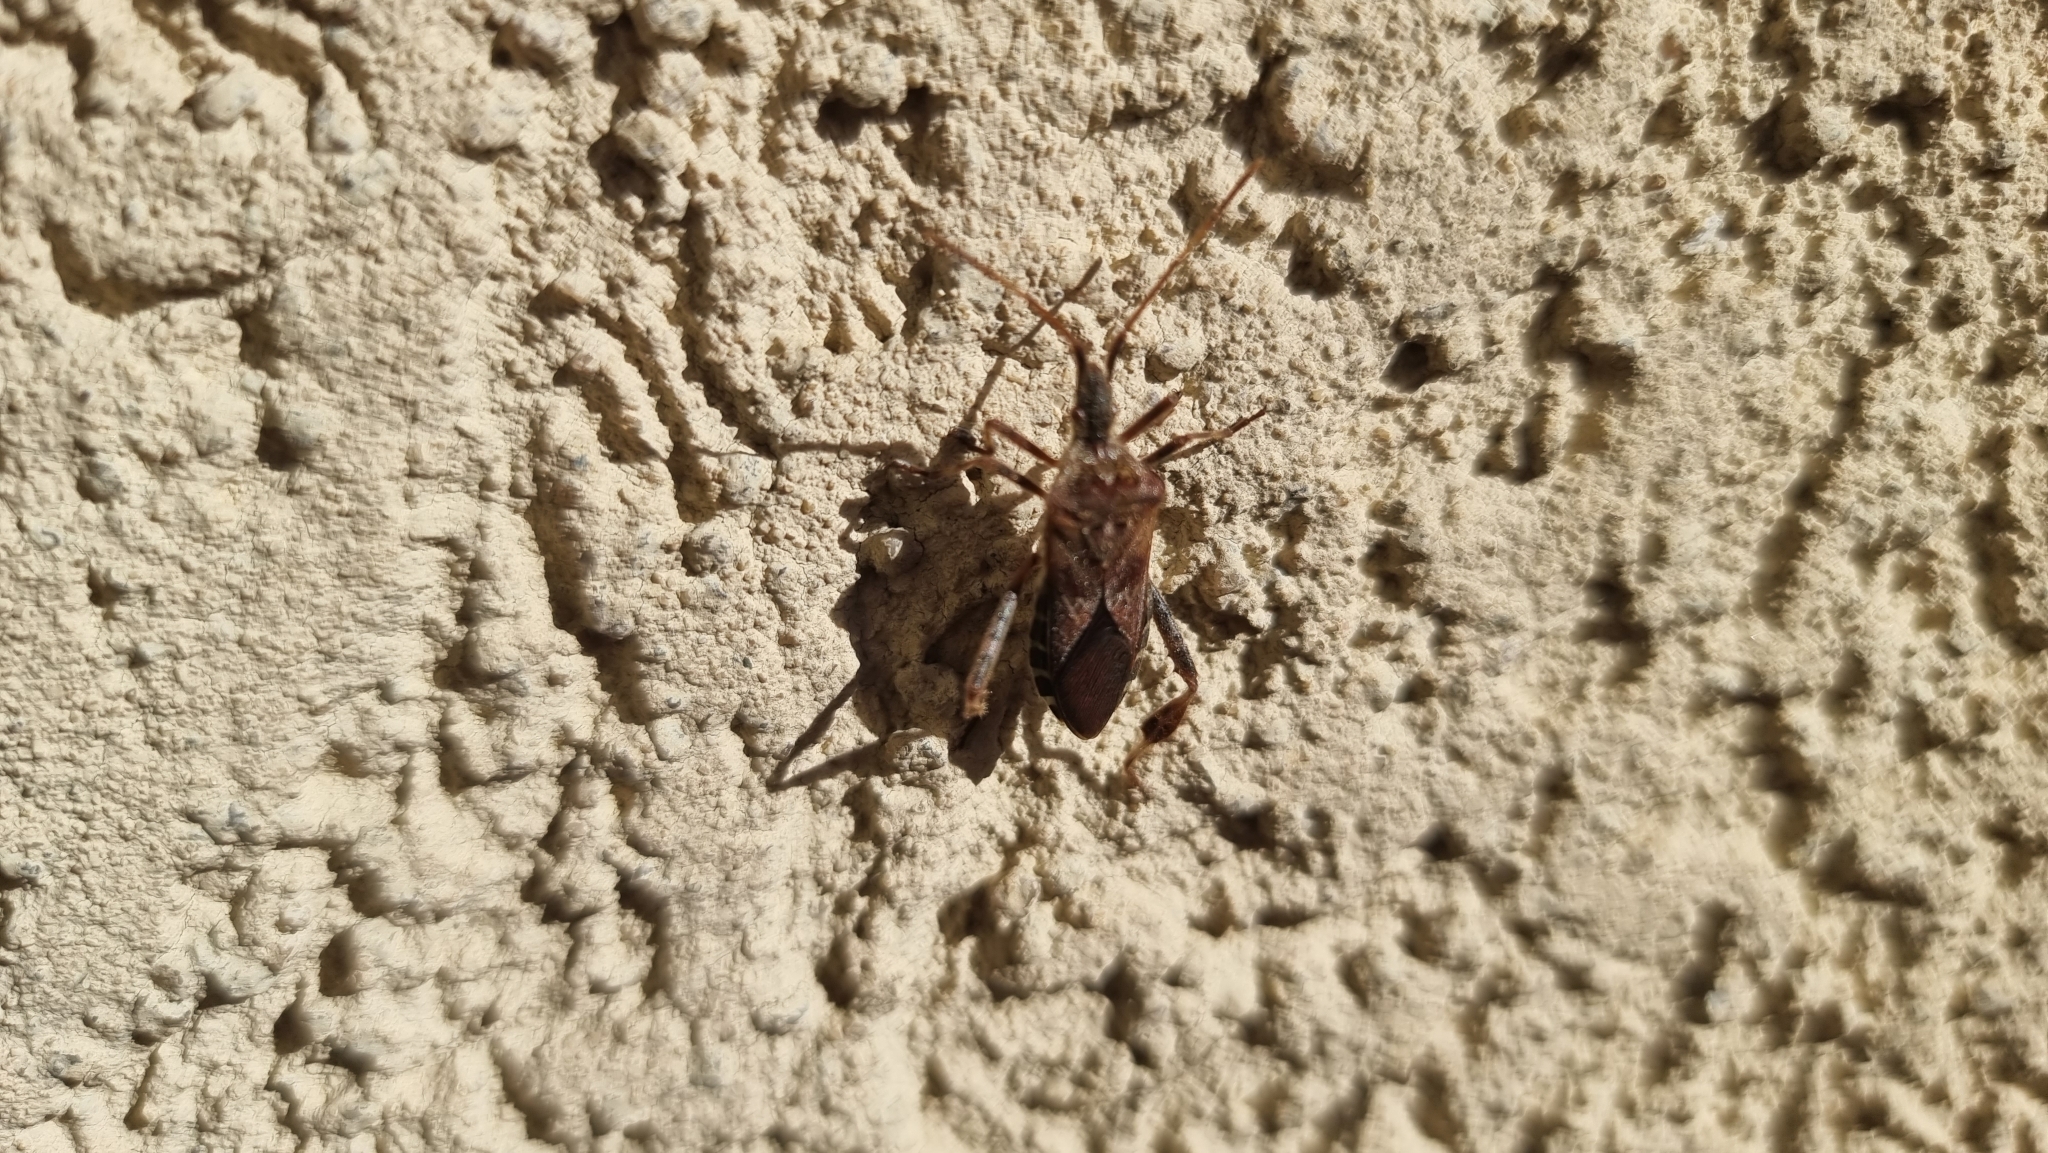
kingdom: Animalia
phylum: Arthropoda
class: Insecta
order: Hemiptera
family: Coreidae
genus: Leptoglossus
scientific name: Leptoglossus occidentalis
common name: Western conifer-seed bug
